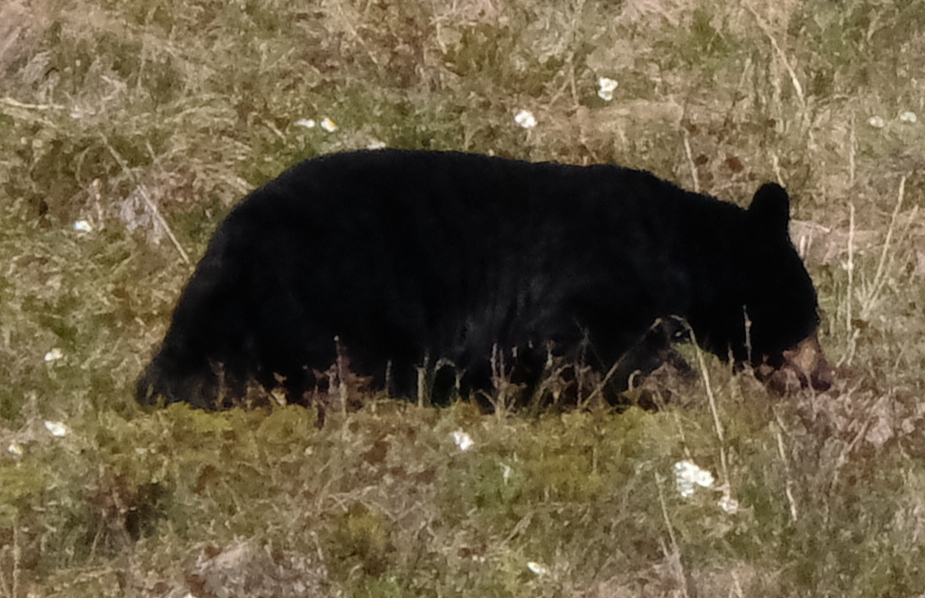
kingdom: Animalia
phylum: Chordata
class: Mammalia
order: Carnivora
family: Ursidae
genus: Ursus
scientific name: Ursus americanus
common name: American black bear
